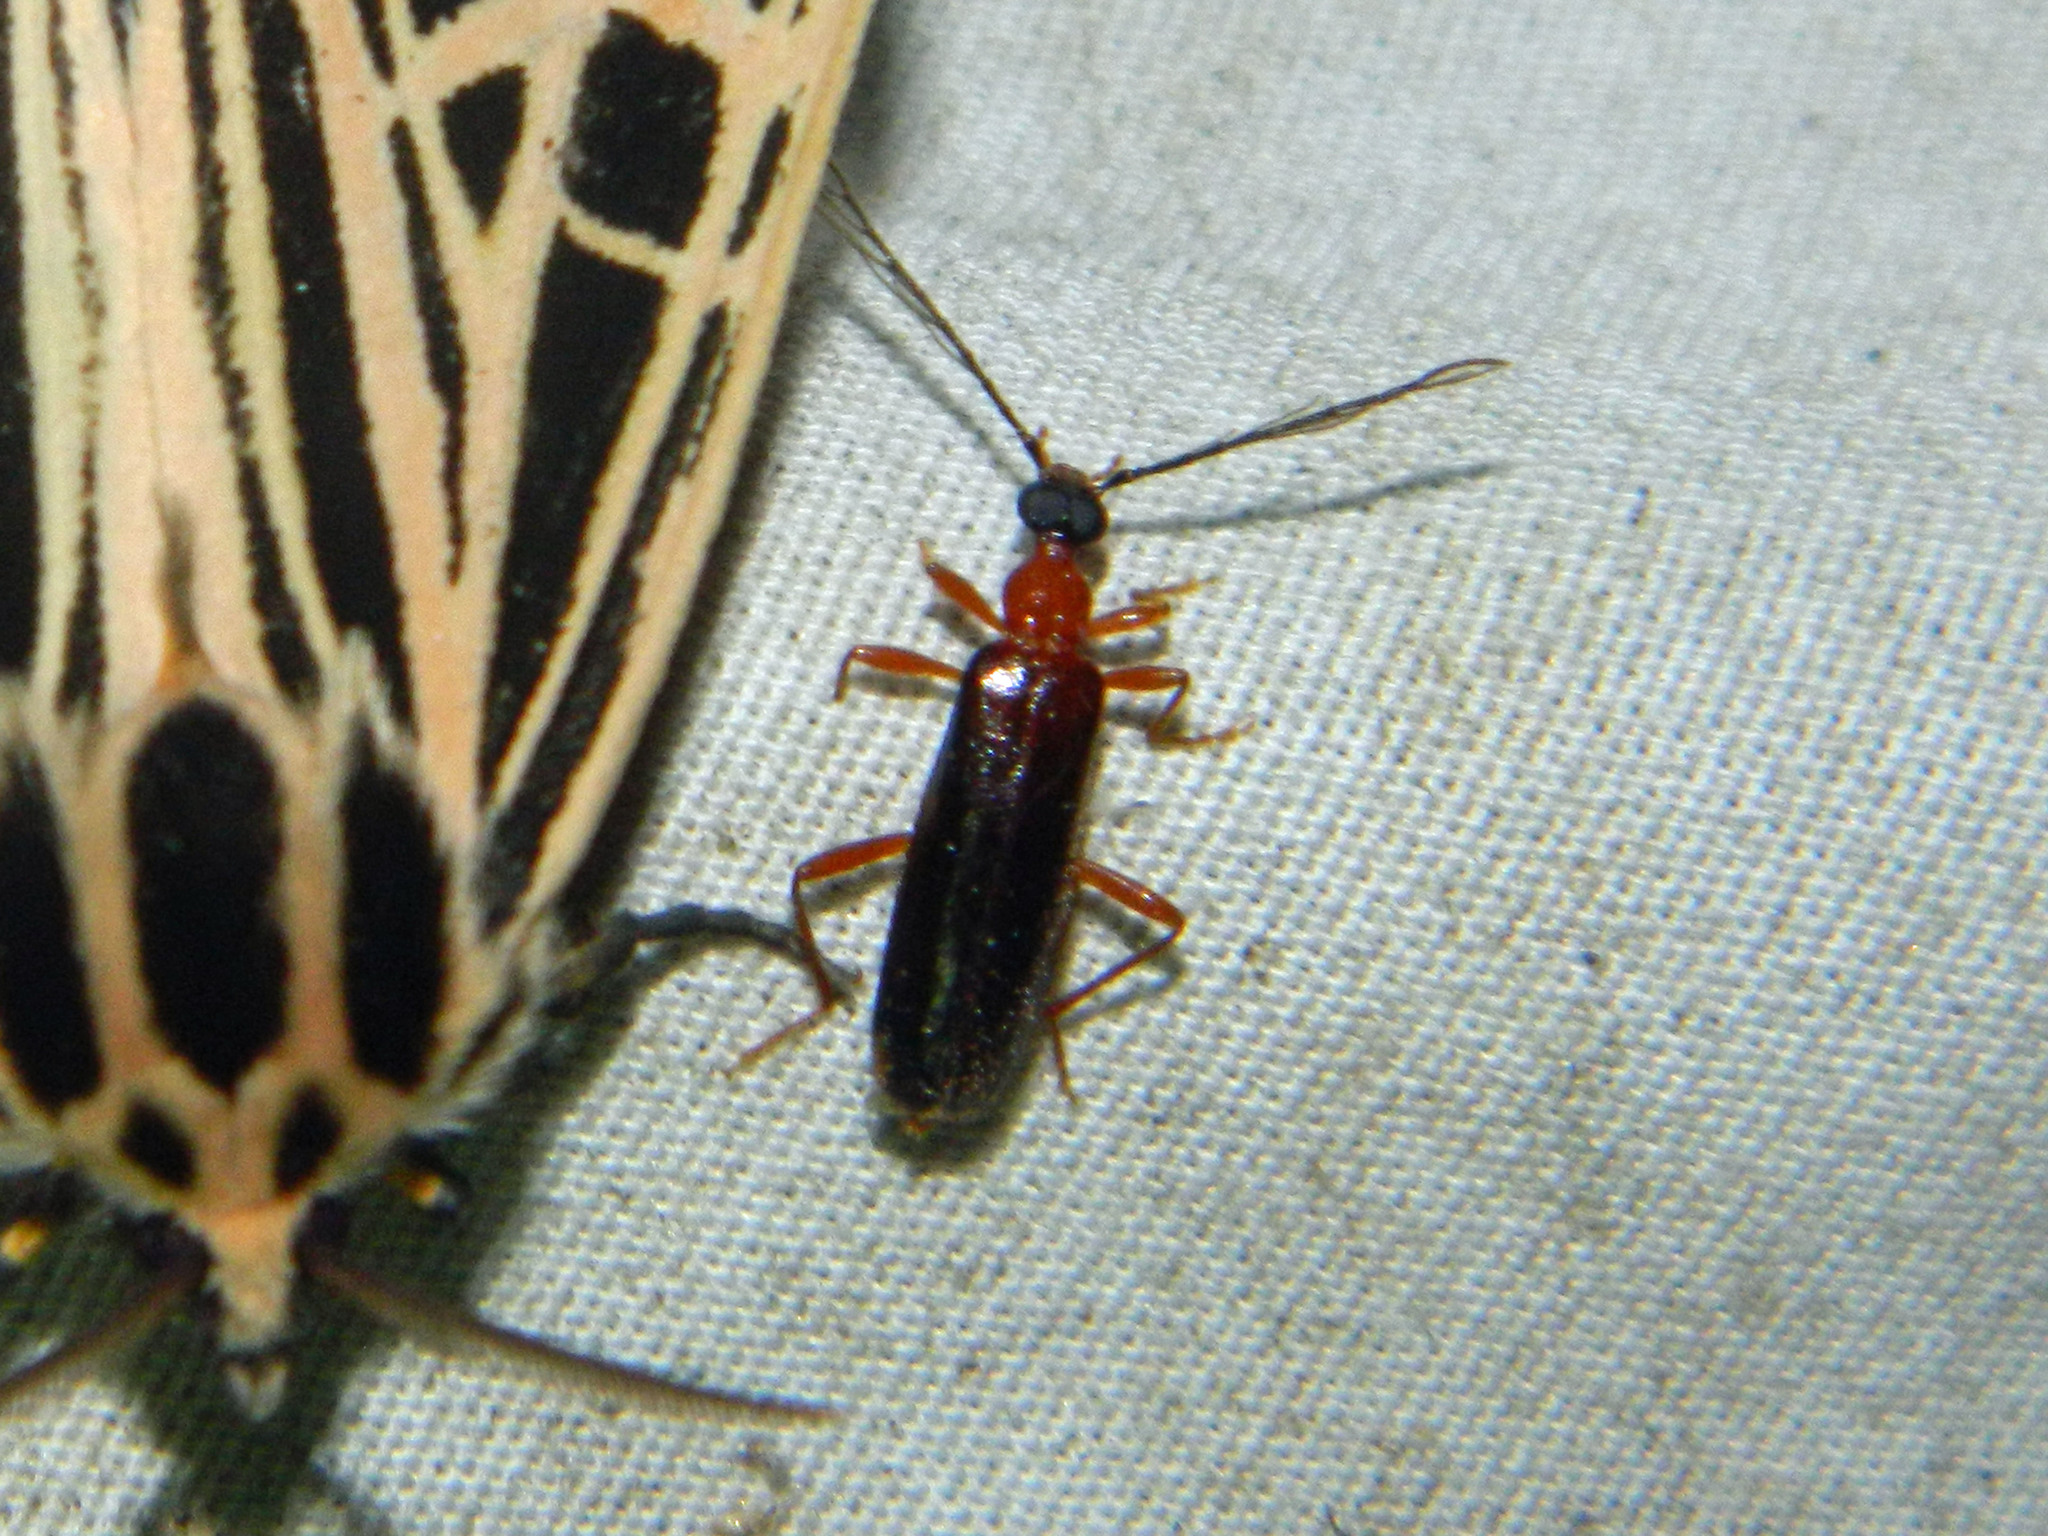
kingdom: Animalia
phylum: Arthropoda
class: Insecta
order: Coleoptera
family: Pyrochroidae
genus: Dendroides
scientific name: Dendroides canadensis
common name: Canada fire-colored beetle
